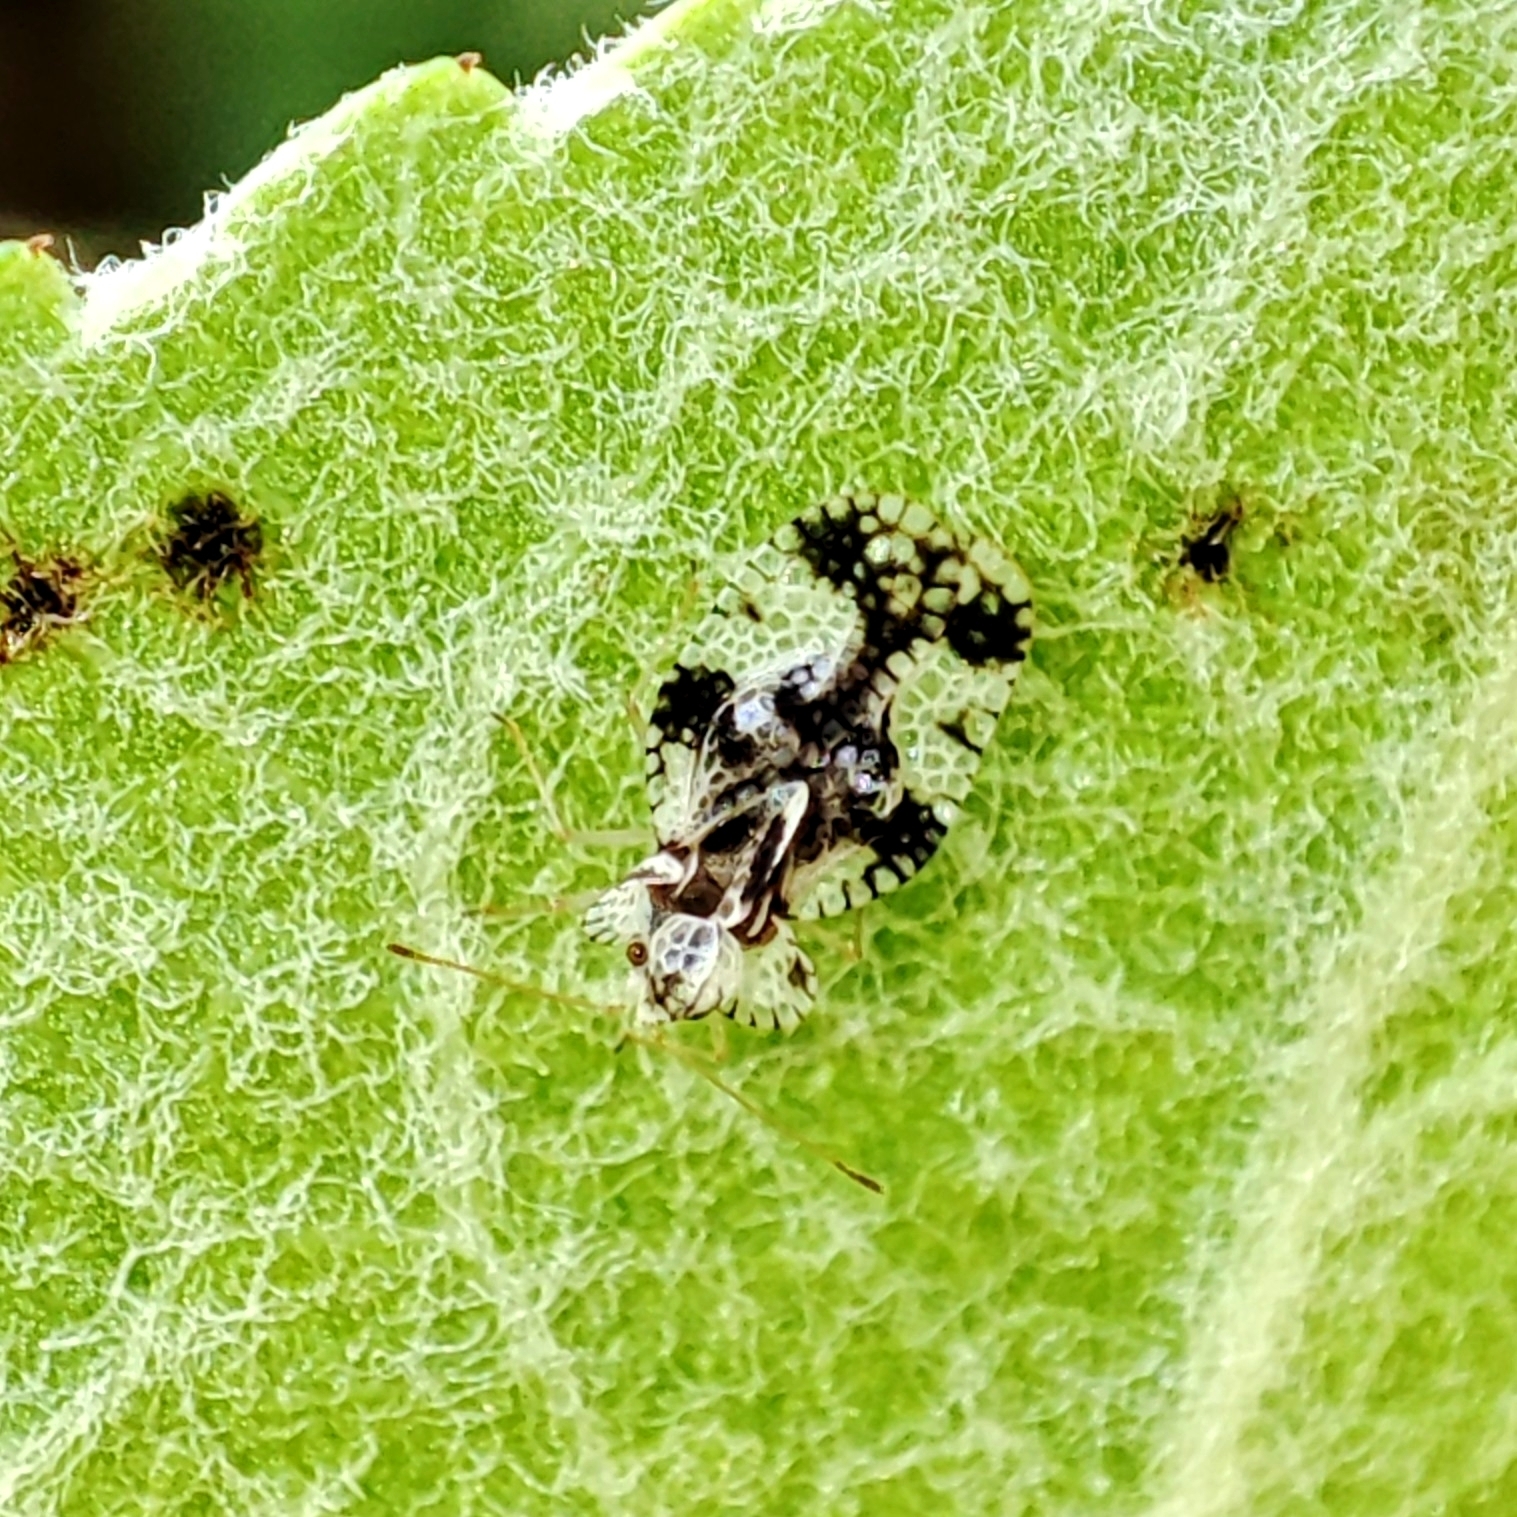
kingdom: Animalia
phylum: Arthropoda
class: Insecta
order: Hemiptera
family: Tingidae
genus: Stephanitis
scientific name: Stephanitis pyri
